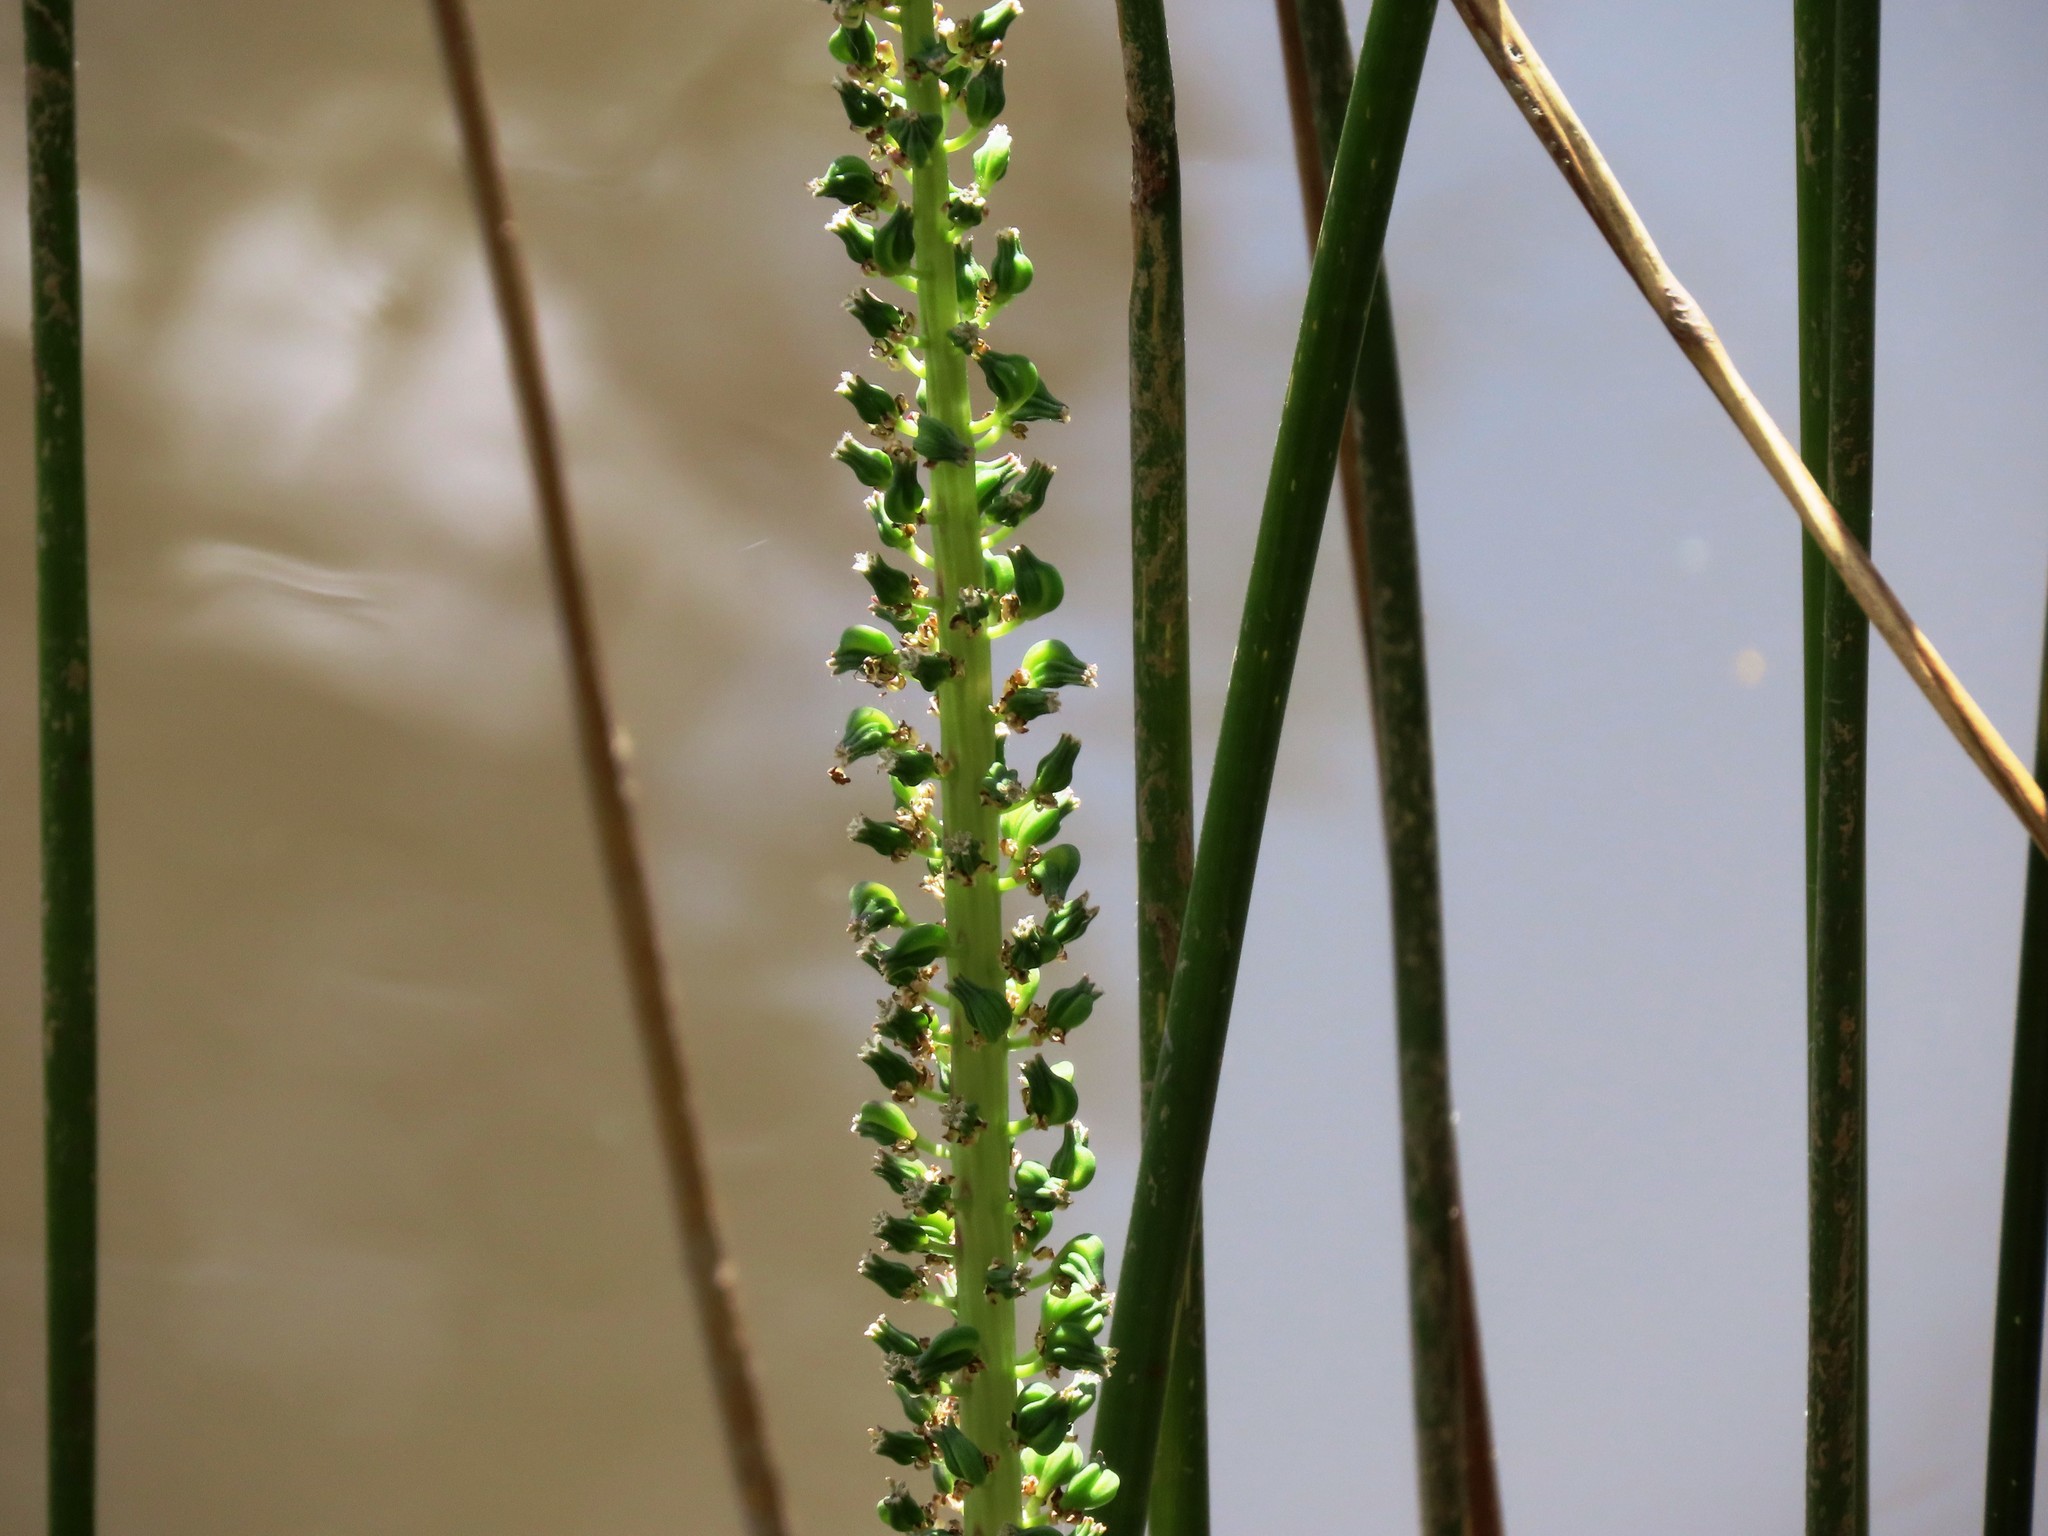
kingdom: Plantae
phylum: Tracheophyta
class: Liliopsida
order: Alismatales
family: Juncaginaceae
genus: Cycnogeton
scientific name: Cycnogeton procerum
